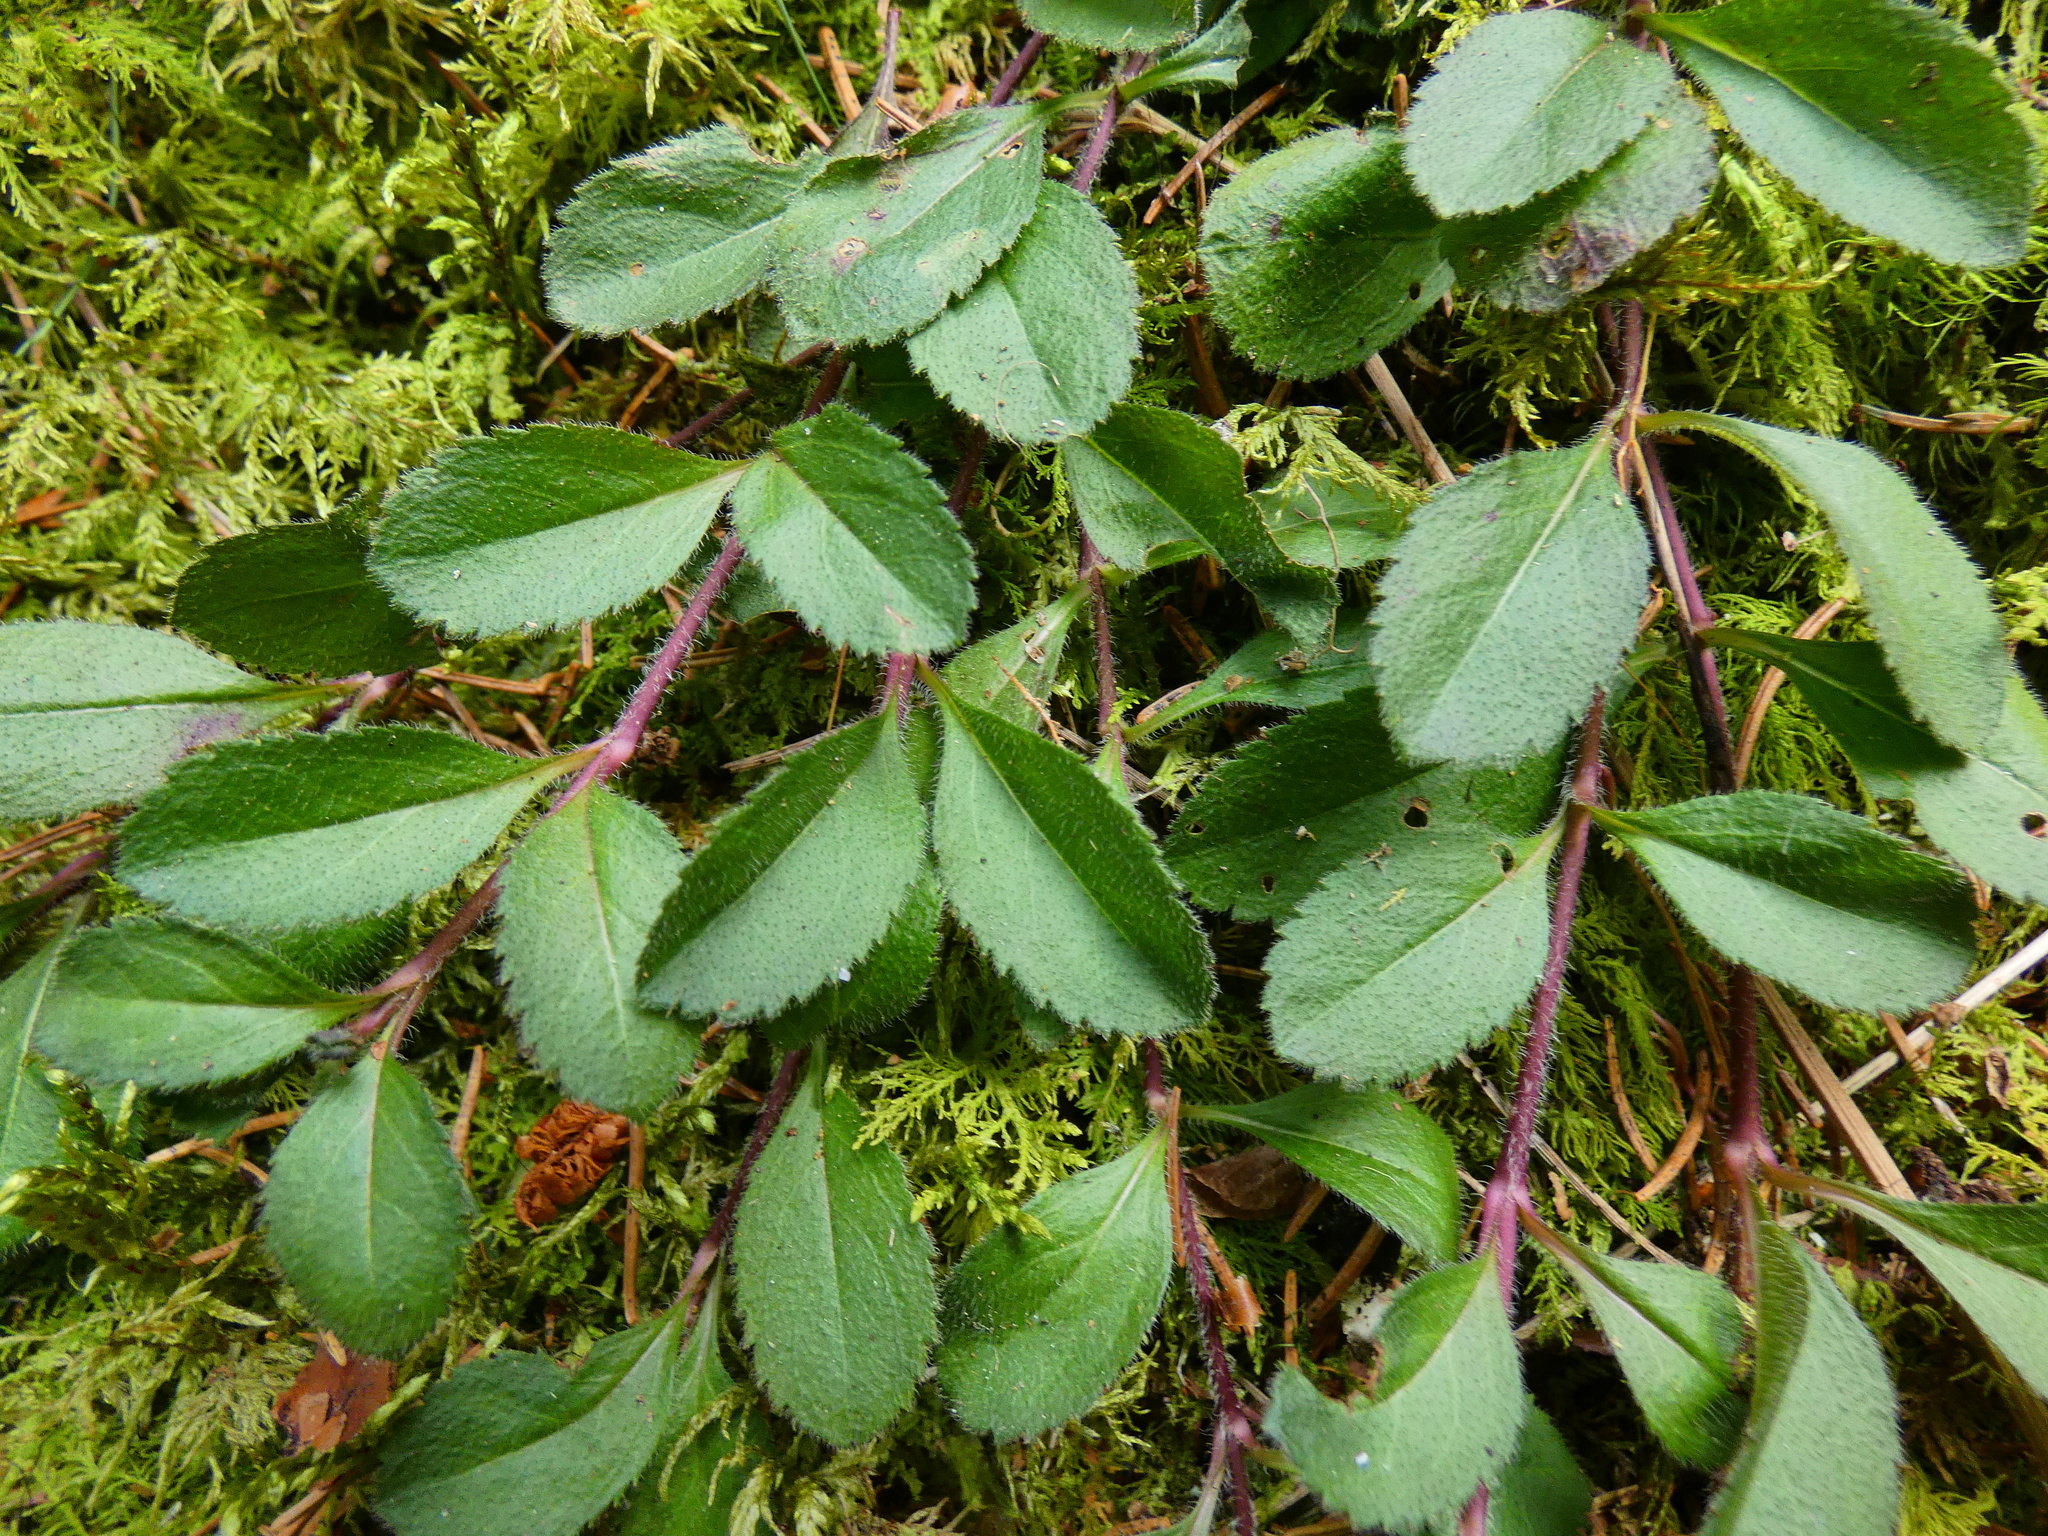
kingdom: Plantae
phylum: Tracheophyta
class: Magnoliopsida
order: Lamiales
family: Plantaginaceae
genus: Veronica
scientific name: Veronica officinalis
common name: Common speedwell
